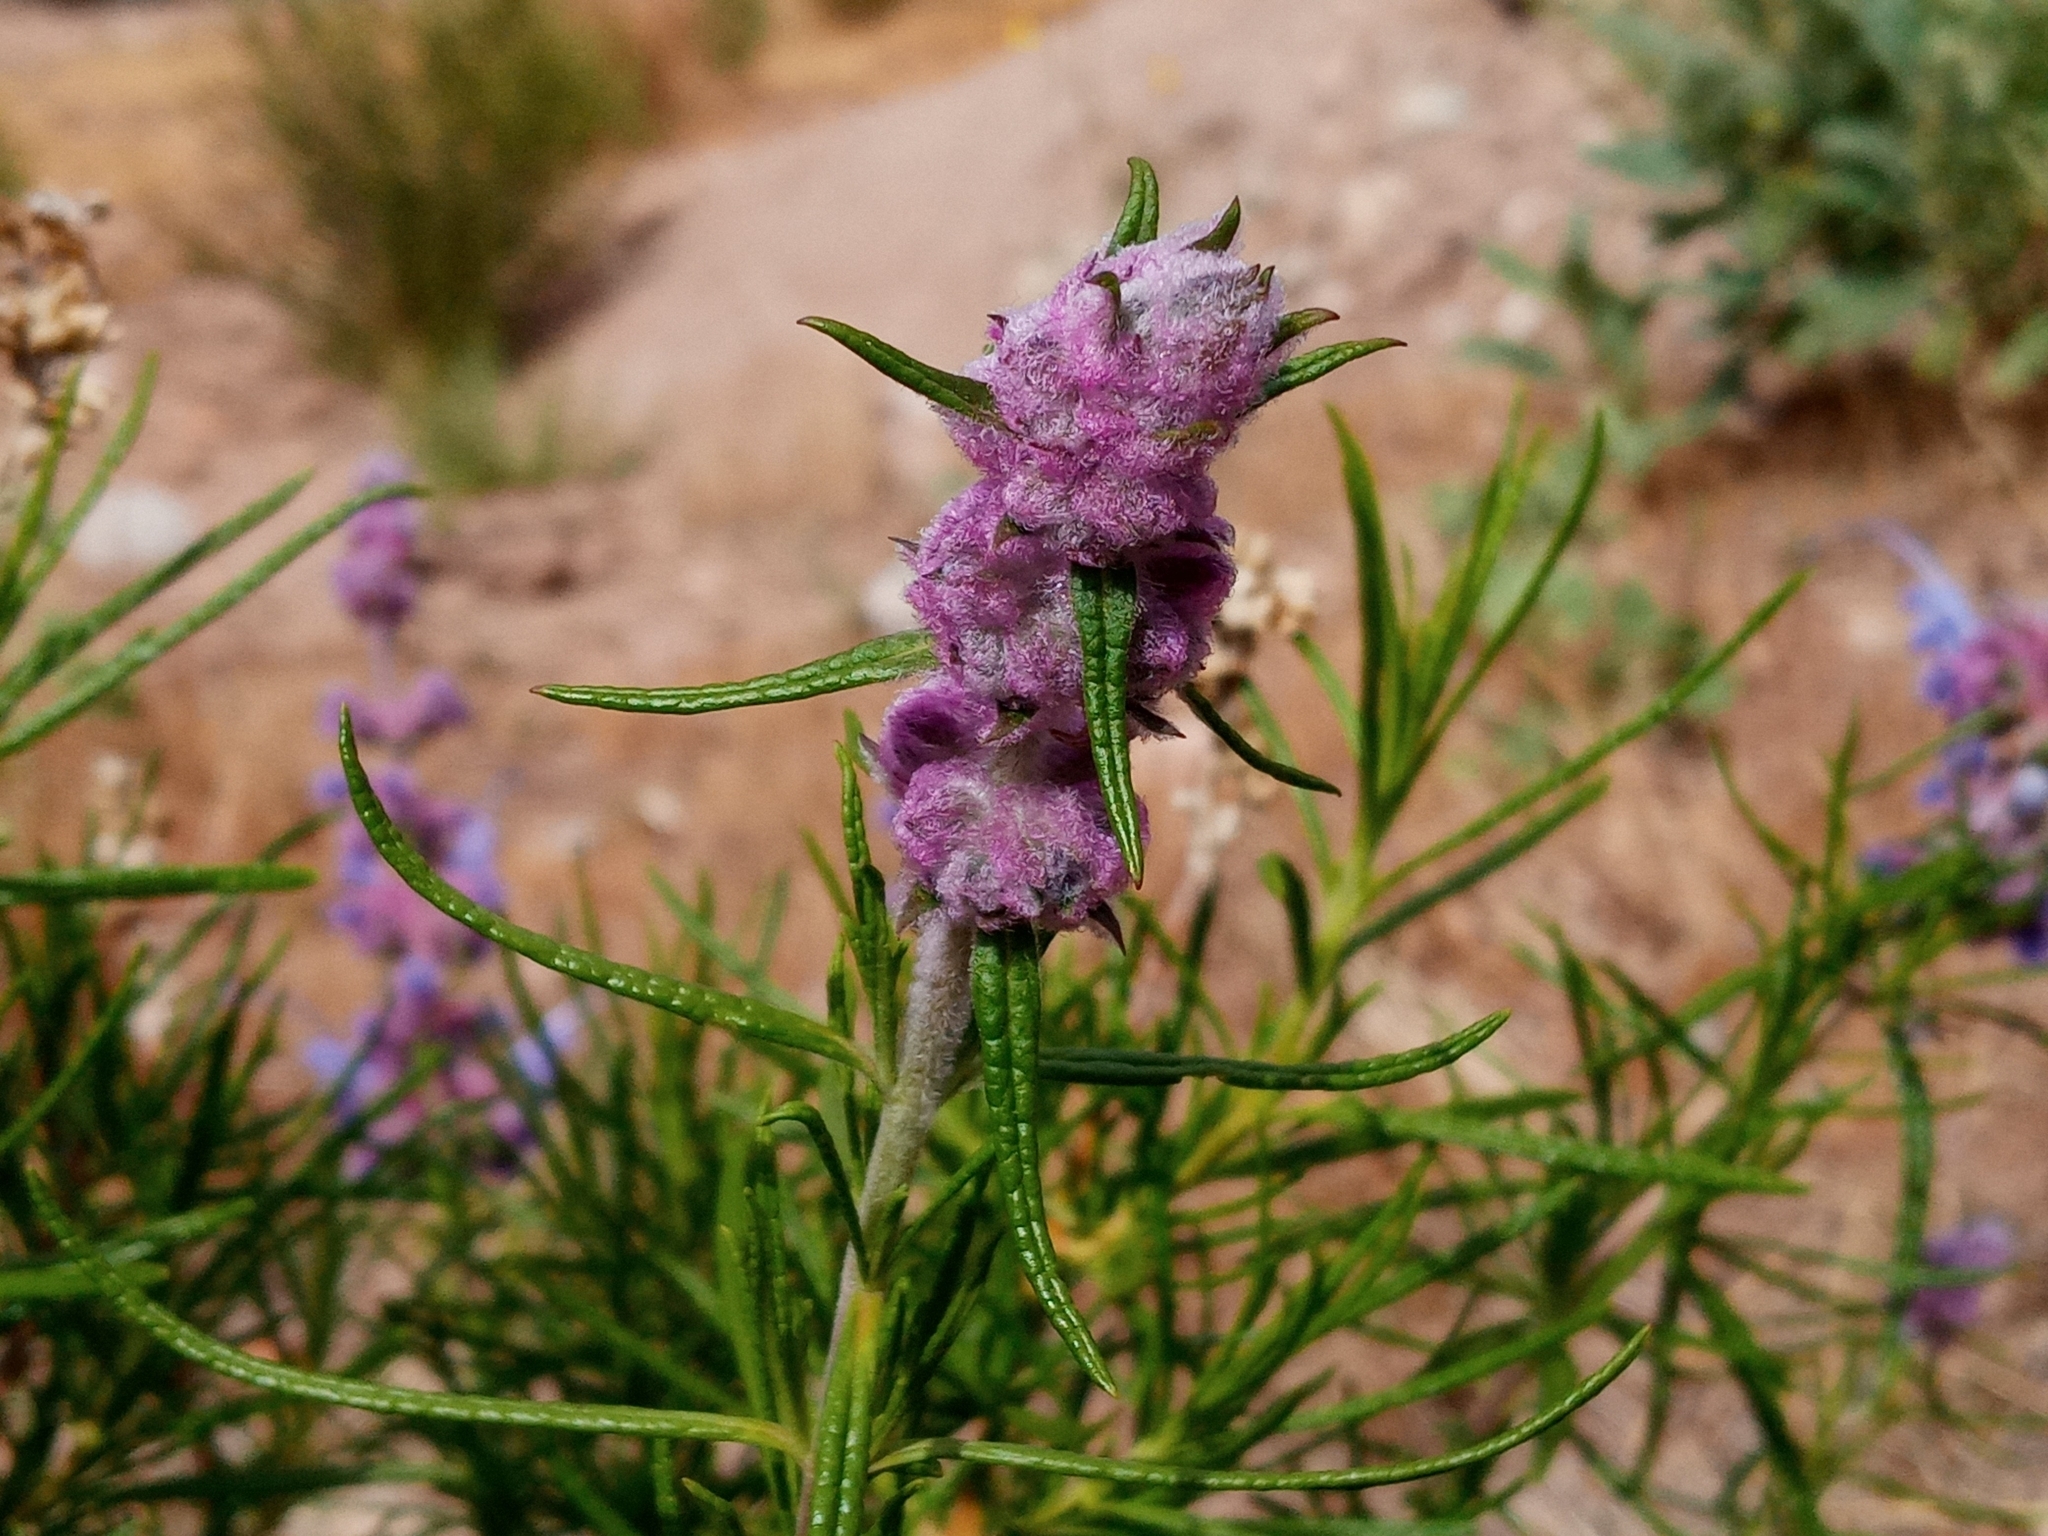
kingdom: Plantae
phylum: Tracheophyta
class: Magnoliopsida
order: Lamiales
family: Lamiaceae
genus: Trichostema
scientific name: Trichostema lanatum
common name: Woolly bluecurls
